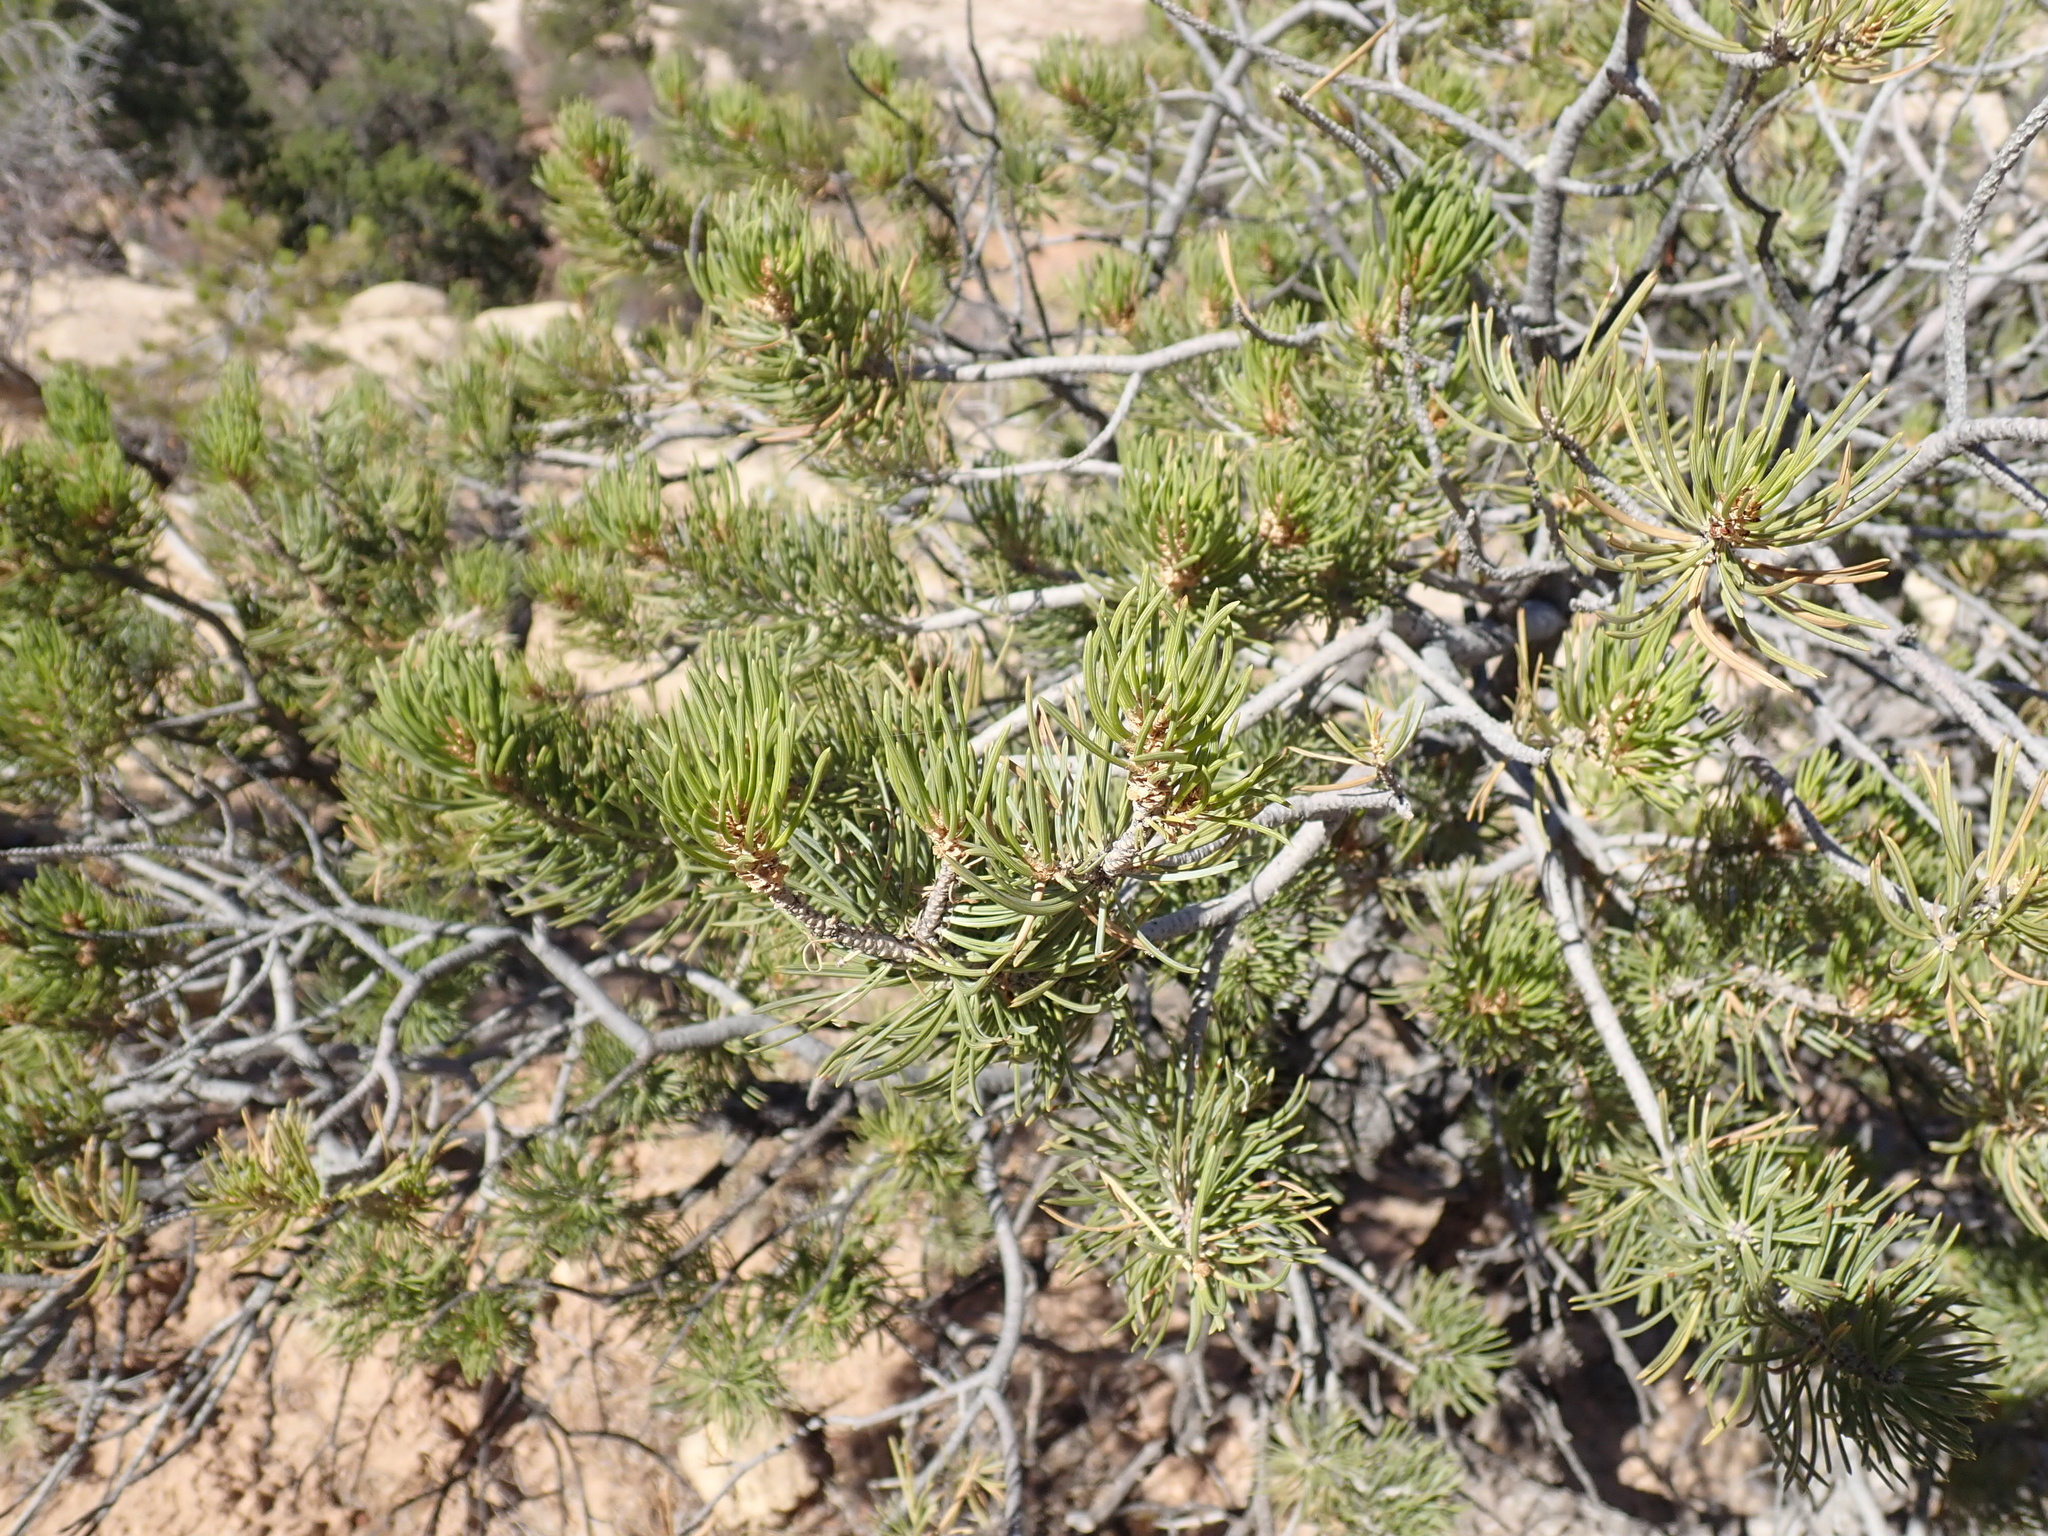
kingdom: Plantae
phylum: Tracheophyta
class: Pinopsida
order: Pinales
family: Pinaceae
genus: Pinus
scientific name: Pinus edulis
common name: Colorado pinyon
